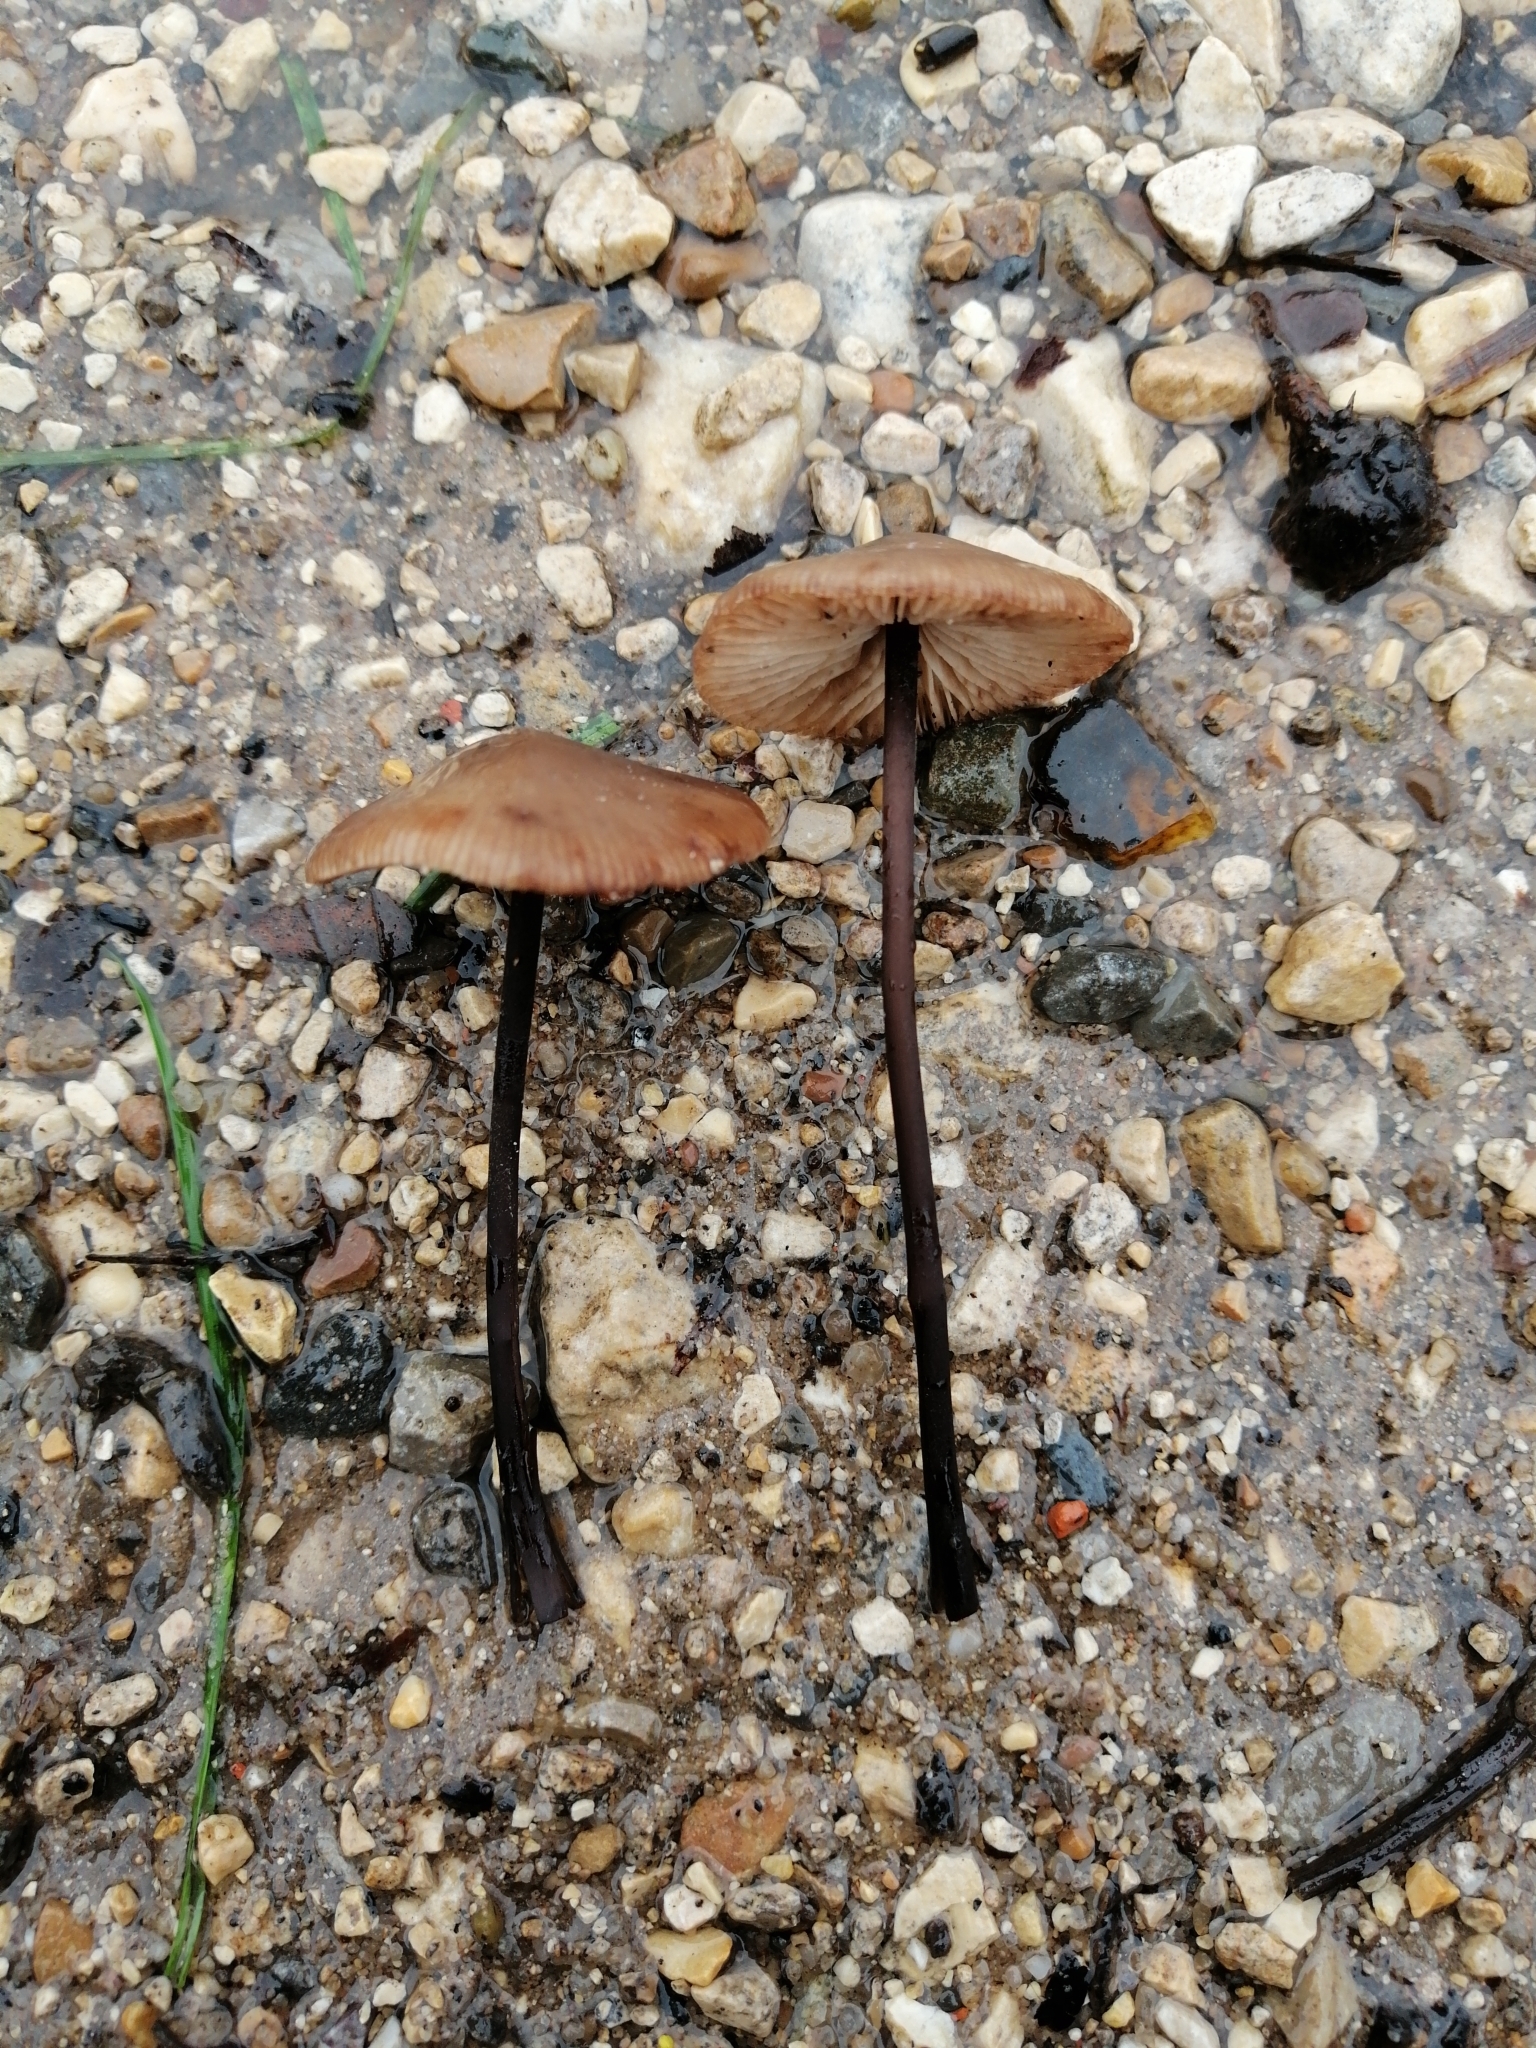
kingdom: Fungi
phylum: Basidiomycota
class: Agaricomycetes
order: Agaricales
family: Omphalotaceae
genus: Mycetinis
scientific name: Mycetinis alliaceus
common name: Garlic parachute
